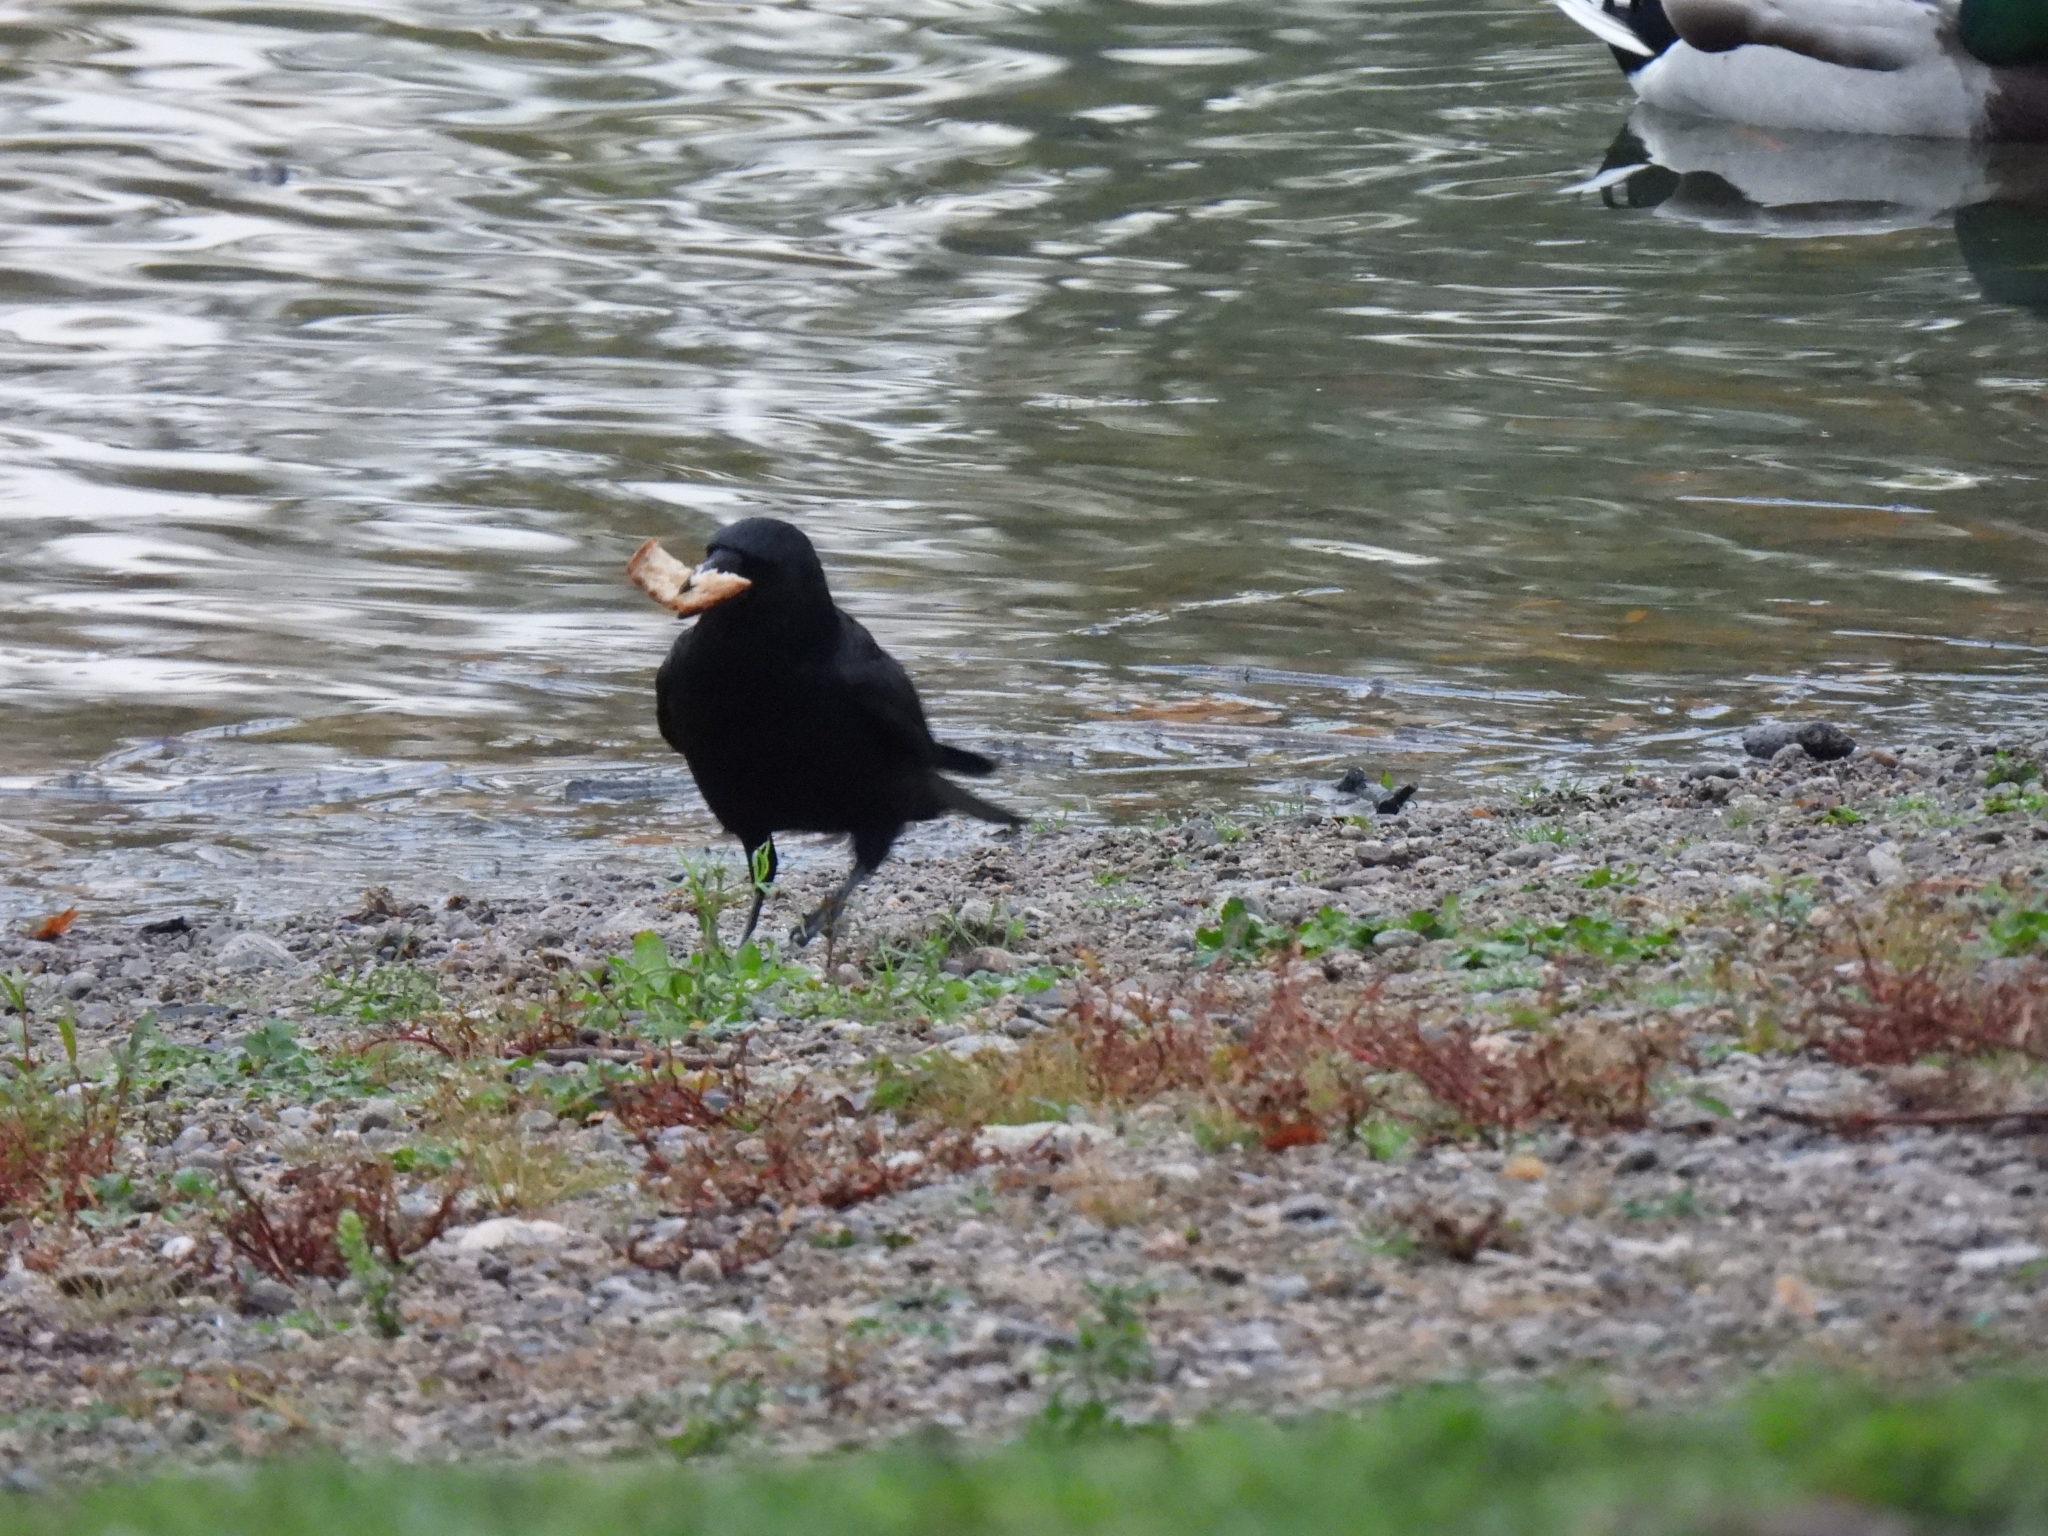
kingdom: Animalia
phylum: Chordata
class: Aves
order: Passeriformes
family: Corvidae
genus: Corvus
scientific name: Corvus corone
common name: Carrion crow
